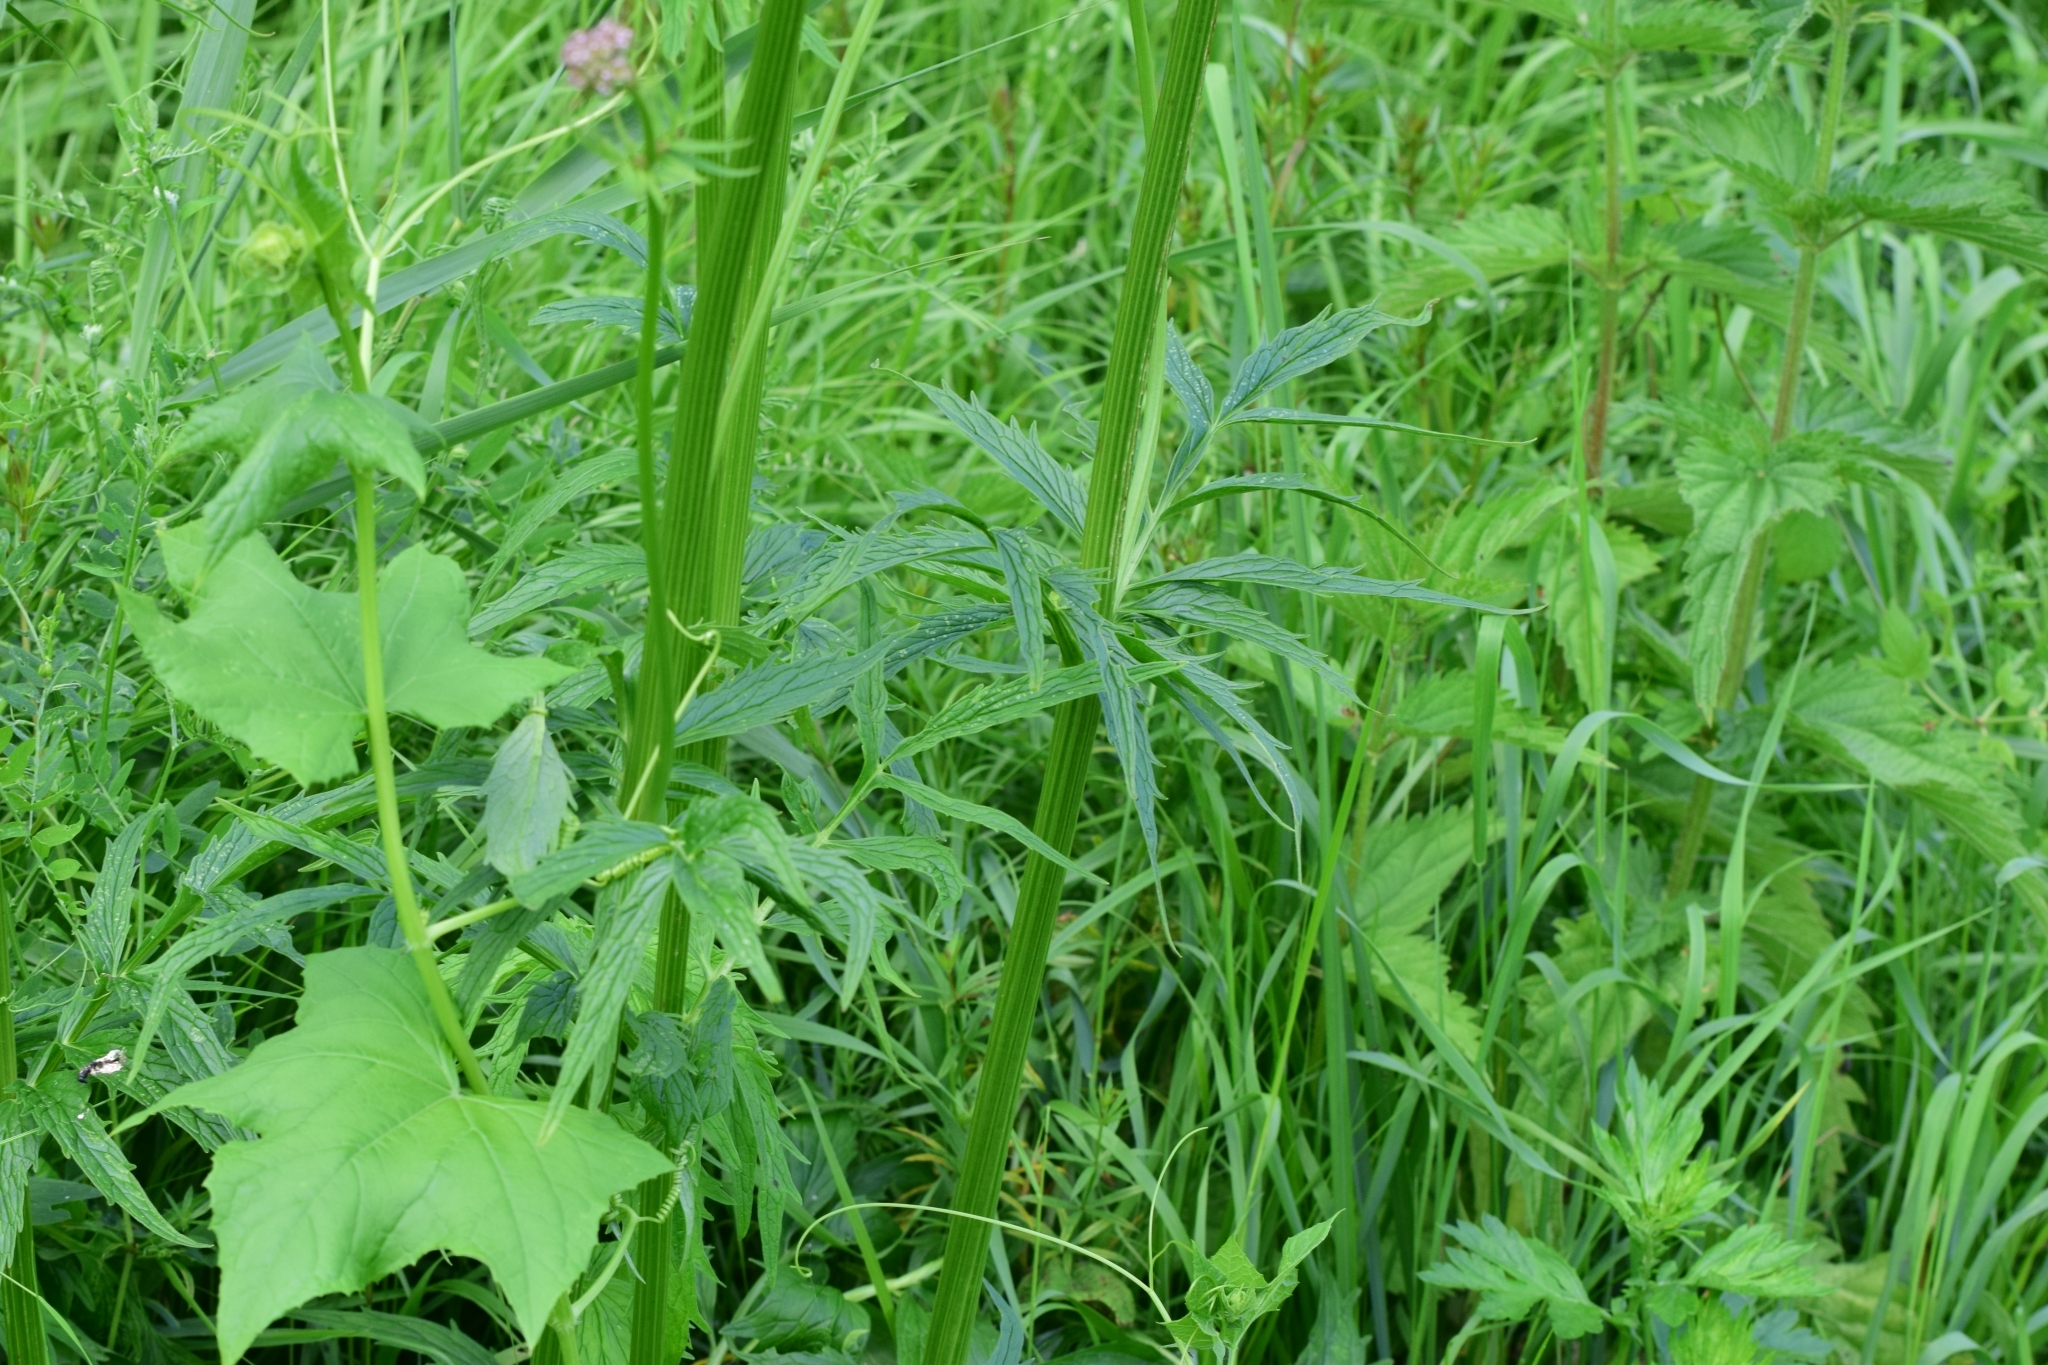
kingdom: Plantae
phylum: Tracheophyta
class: Magnoliopsida
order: Dipsacales
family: Caprifoliaceae
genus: Valeriana
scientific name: Valeriana officinalis
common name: Common valerian
